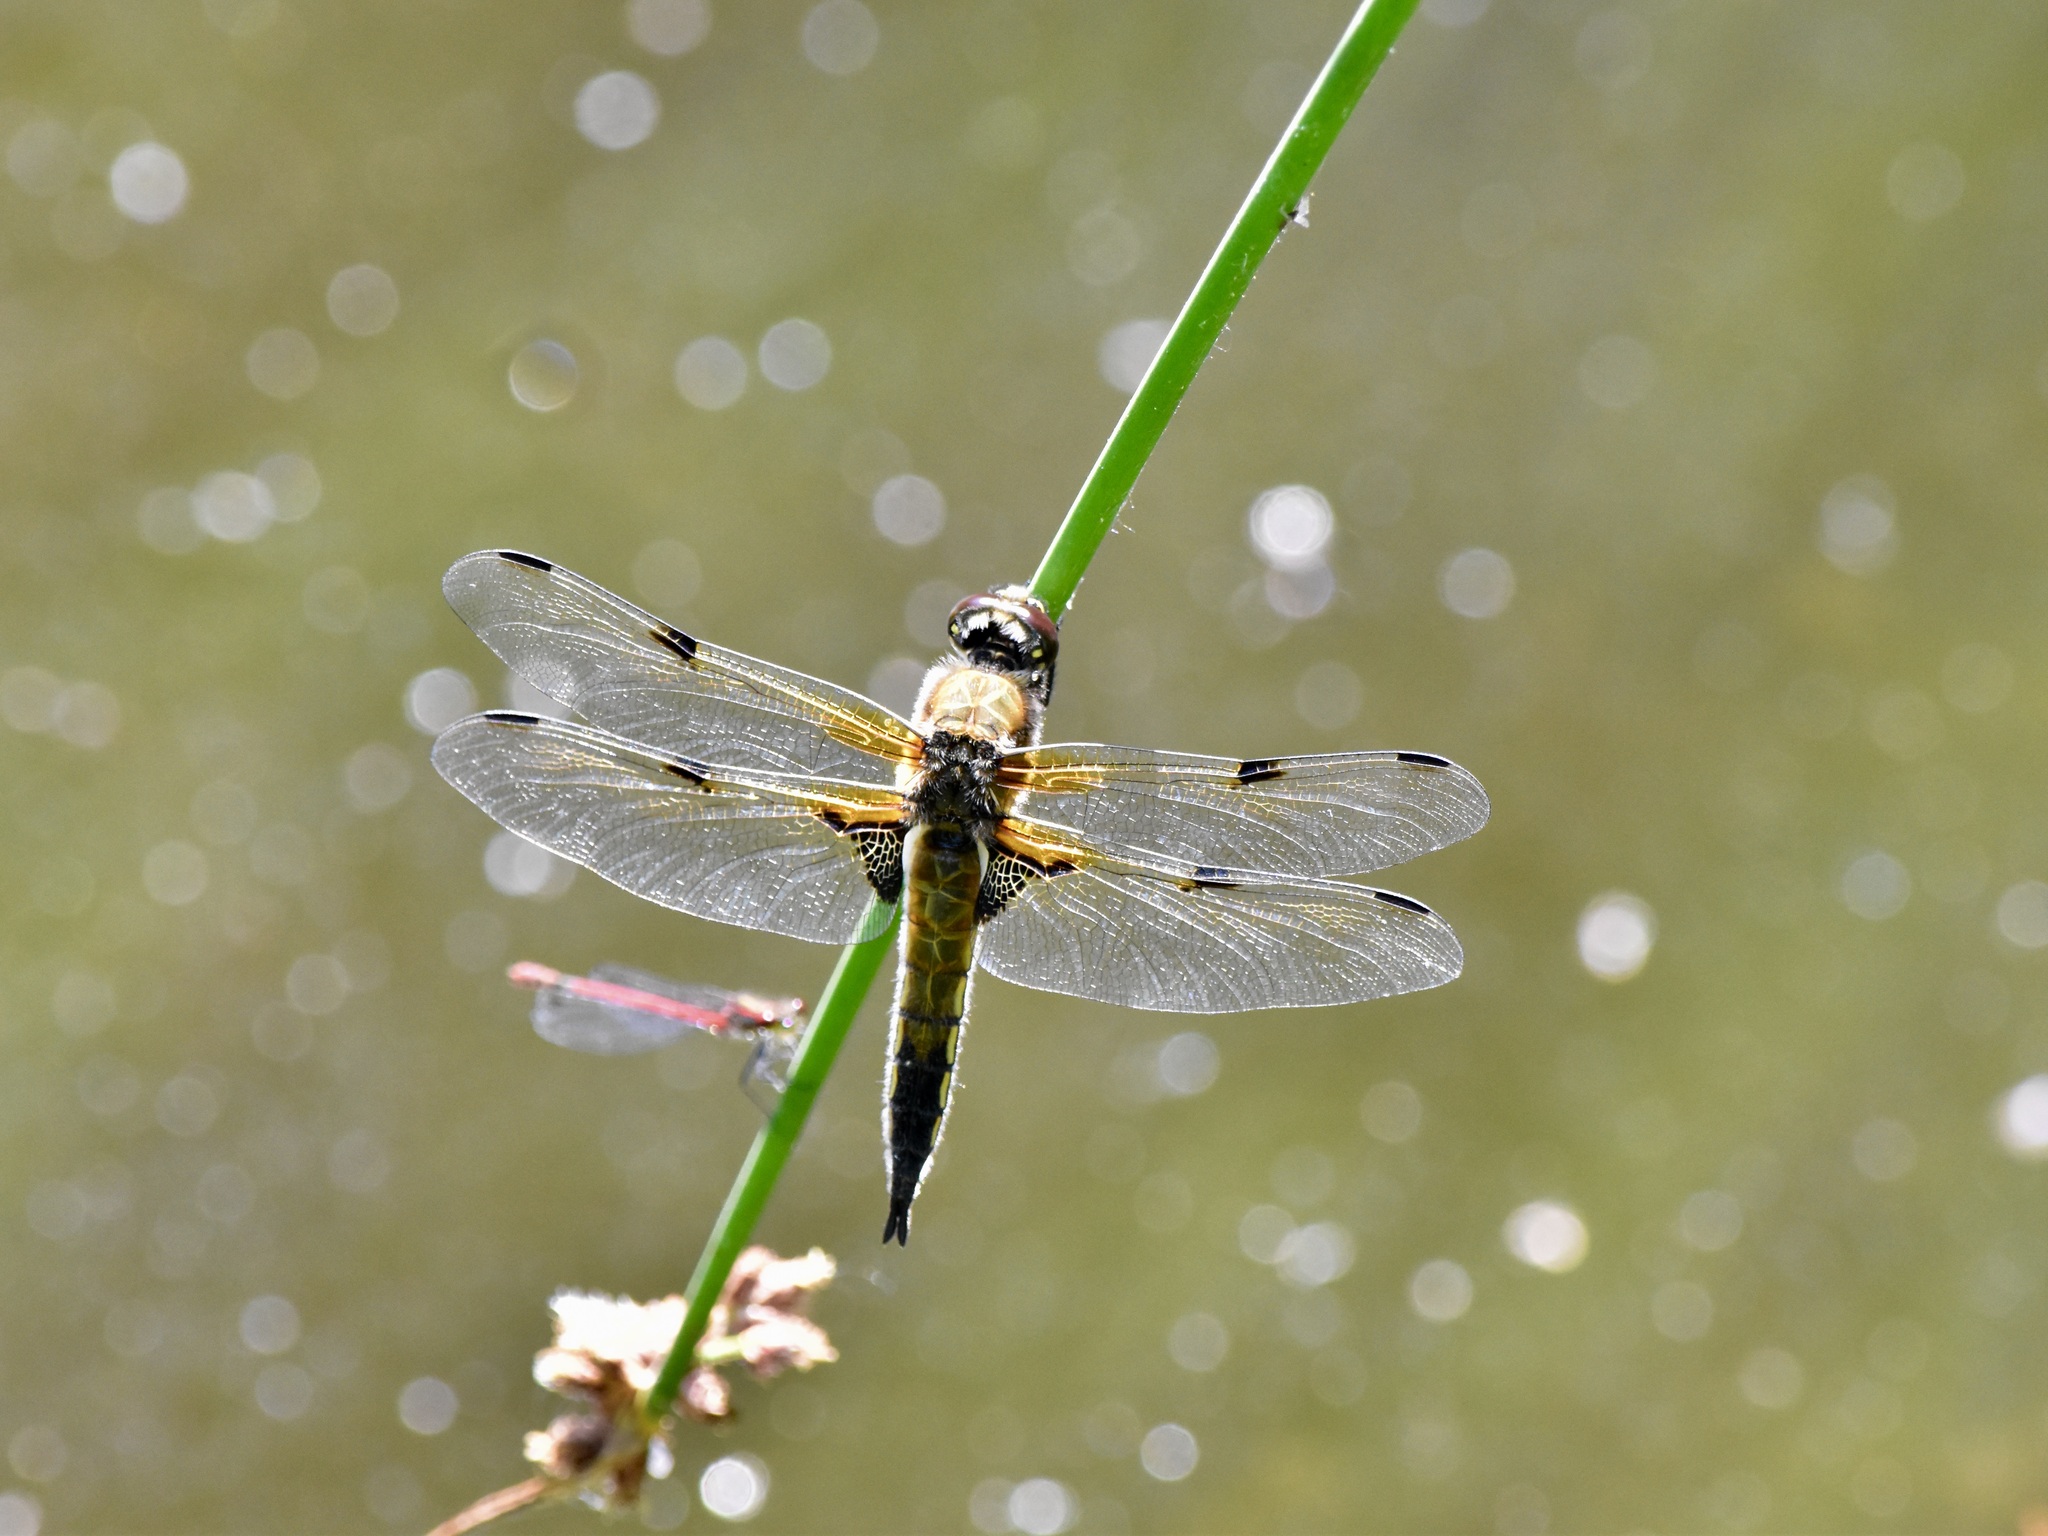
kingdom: Animalia
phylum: Arthropoda
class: Insecta
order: Odonata
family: Libellulidae
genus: Libellula
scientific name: Libellula quadrimaculata
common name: Four-spotted chaser
